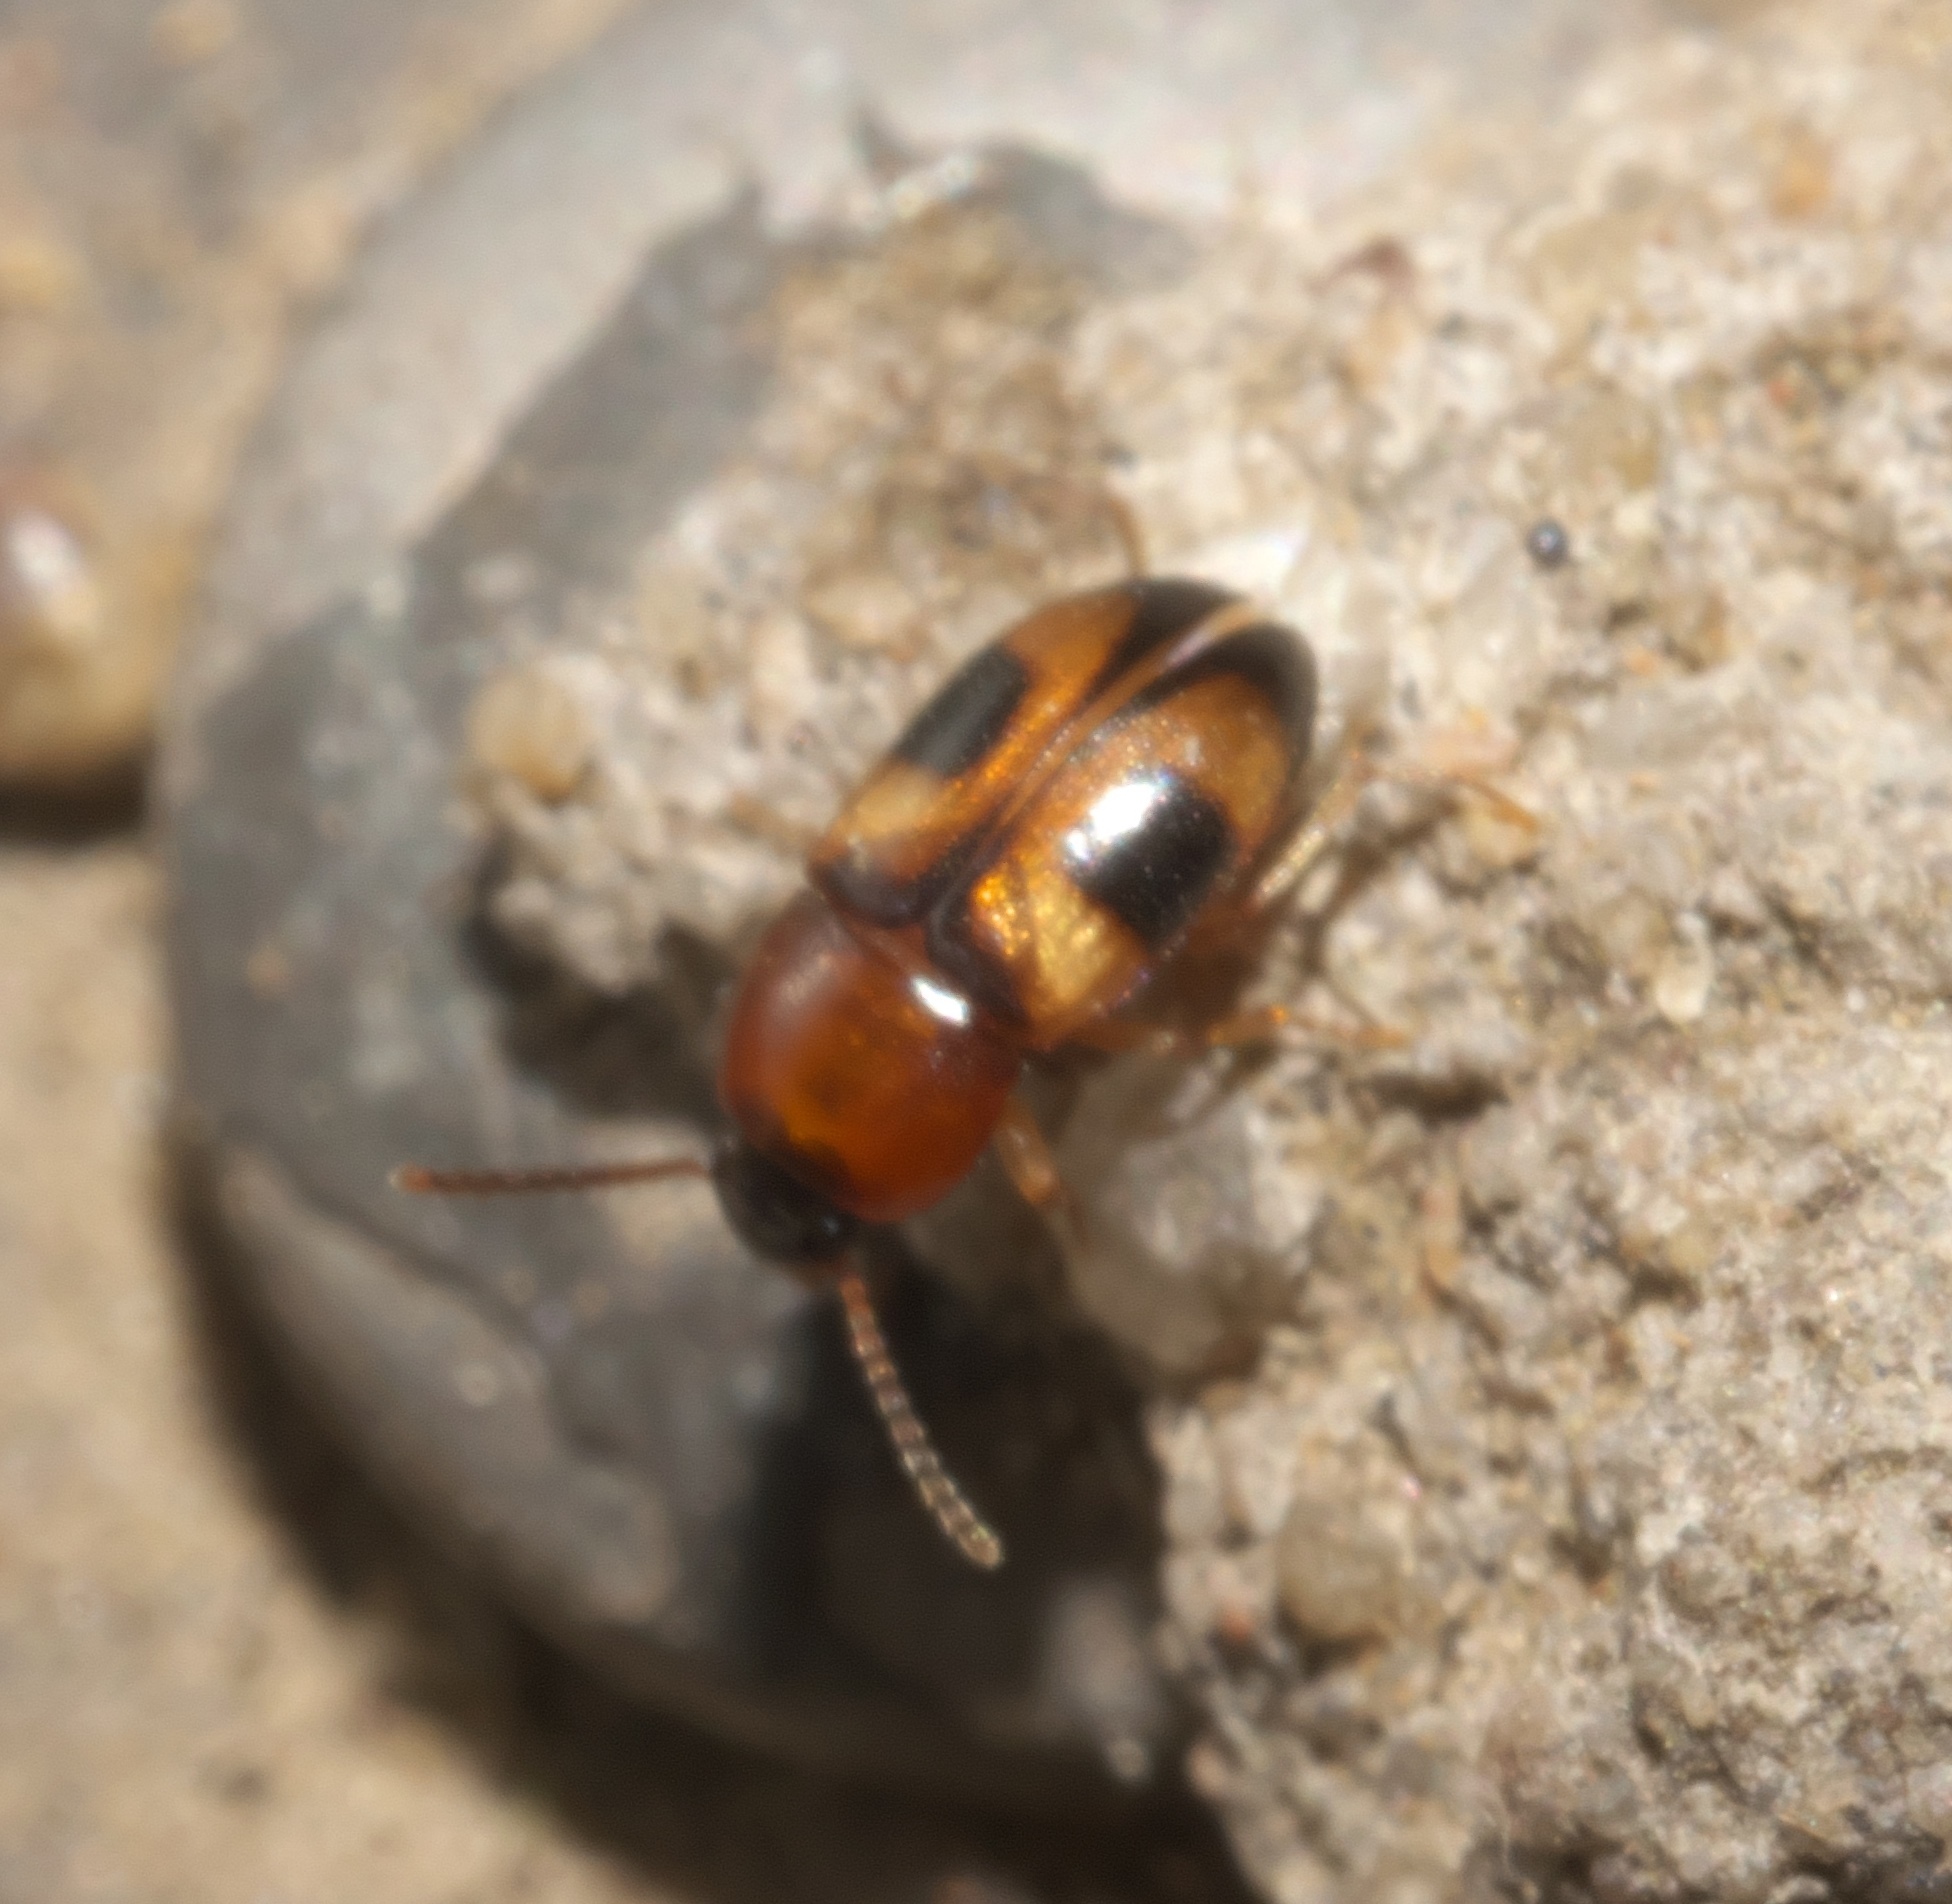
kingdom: Animalia
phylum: Arthropoda
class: Insecta
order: Coleoptera
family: Tenebrionidae
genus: Poecilocrypticus
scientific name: Poecilocrypticus formicophilus
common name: Darkling beetle
